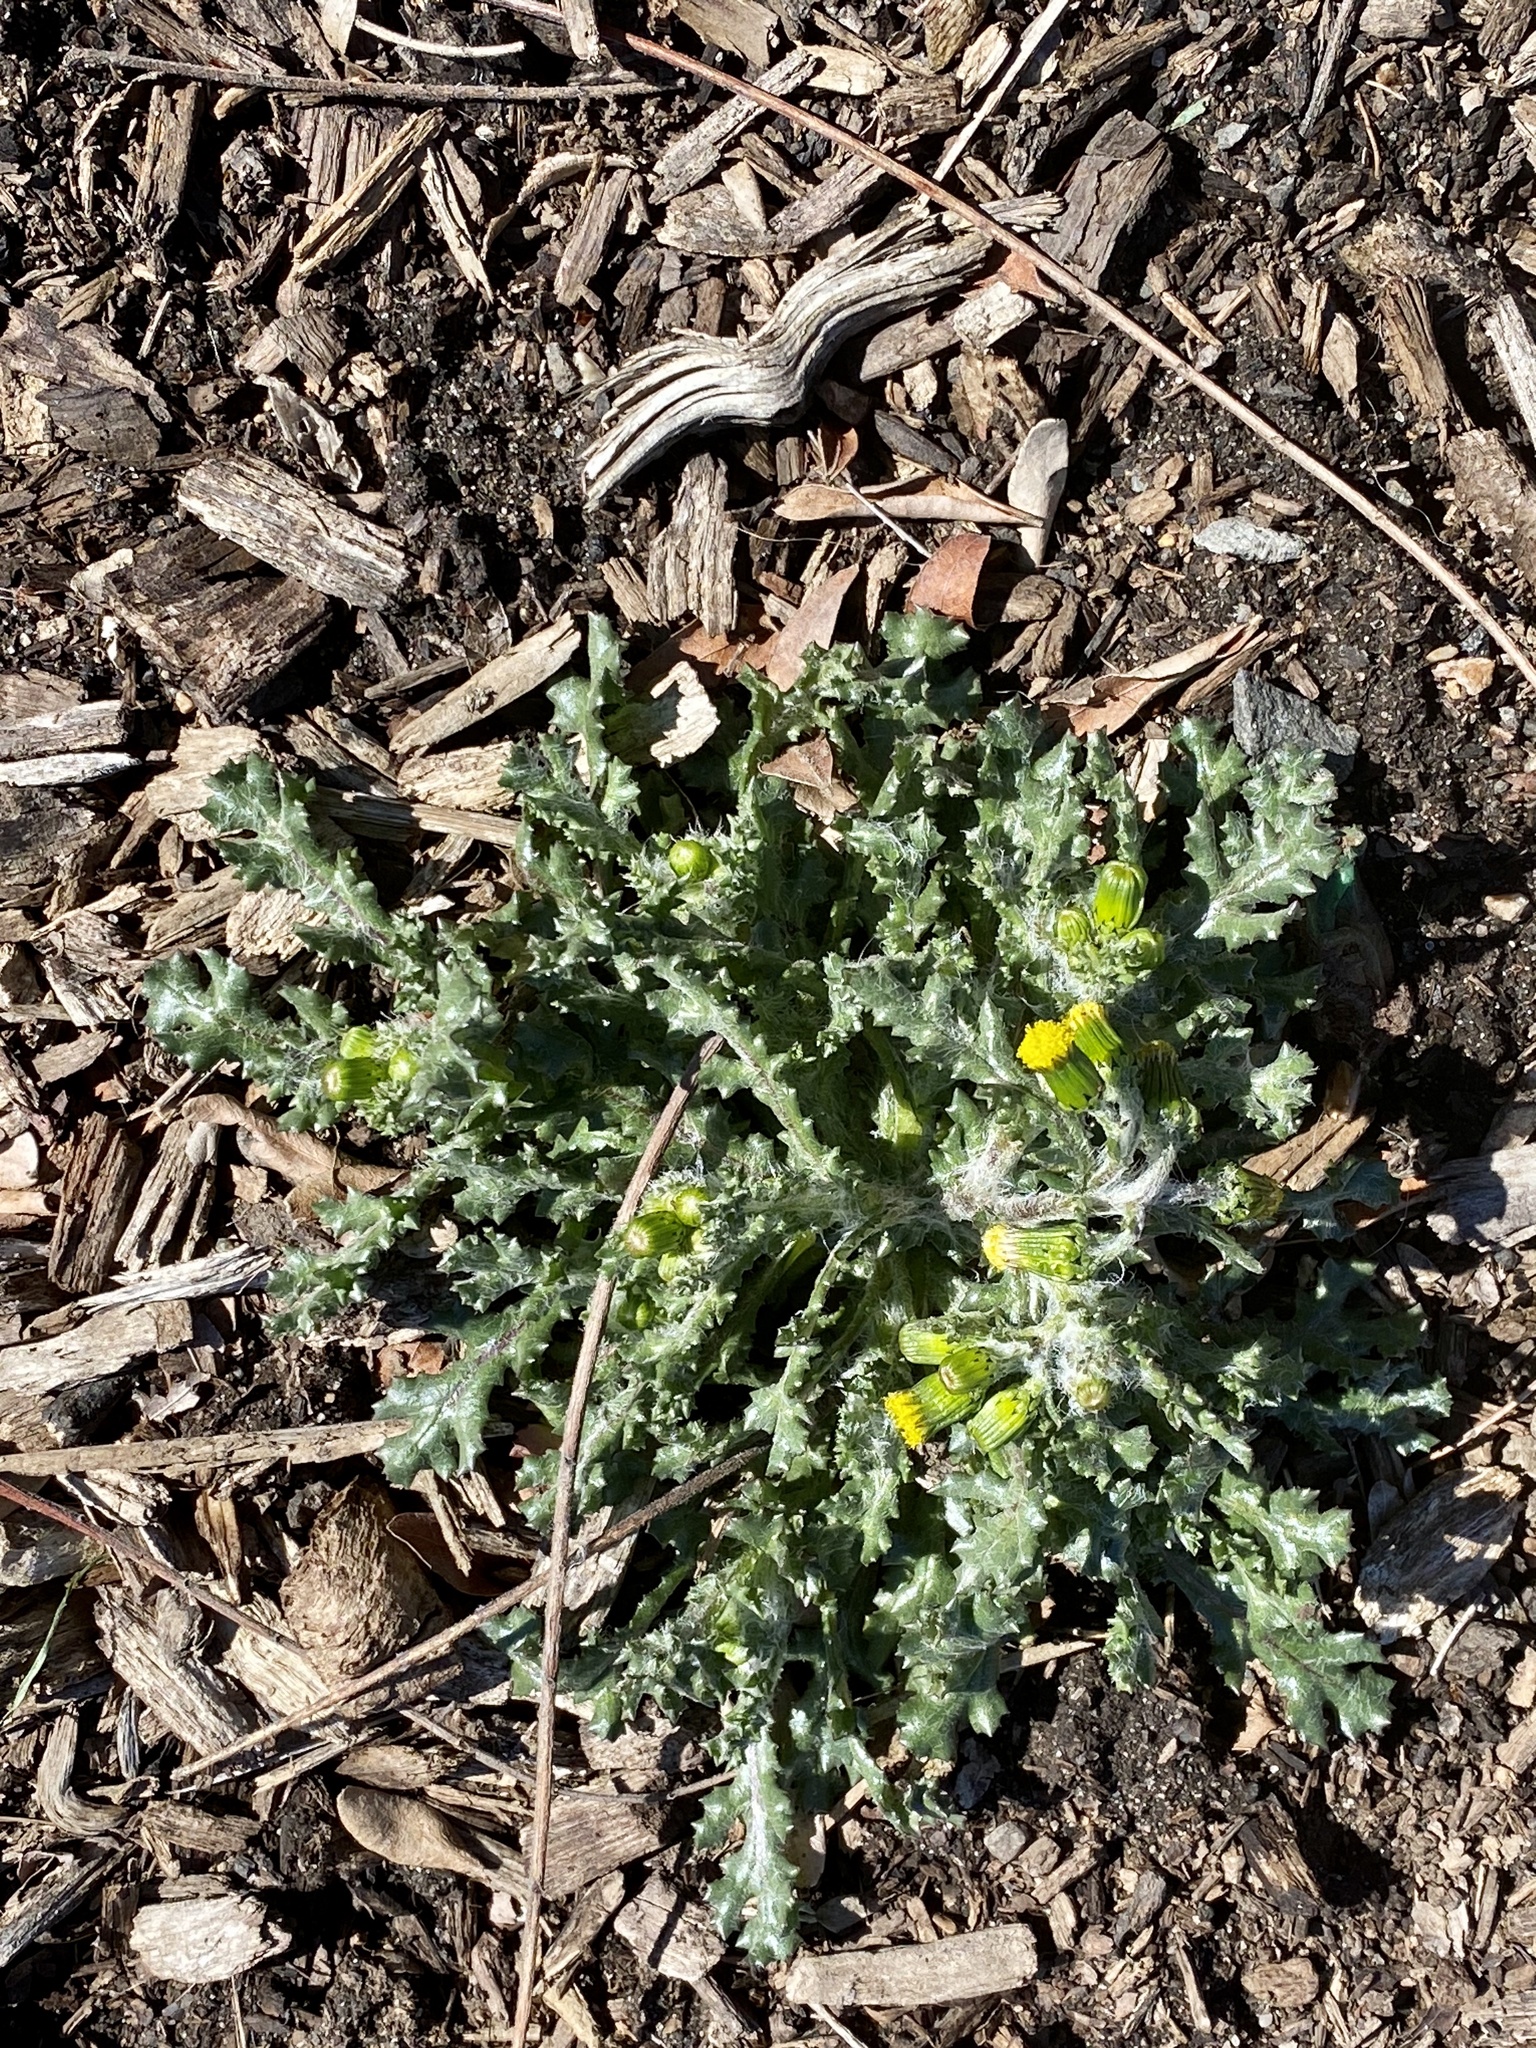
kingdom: Plantae
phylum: Tracheophyta
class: Magnoliopsida
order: Asterales
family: Asteraceae
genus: Senecio
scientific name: Senecio vulgaris
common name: Old-man-in-the-spring
